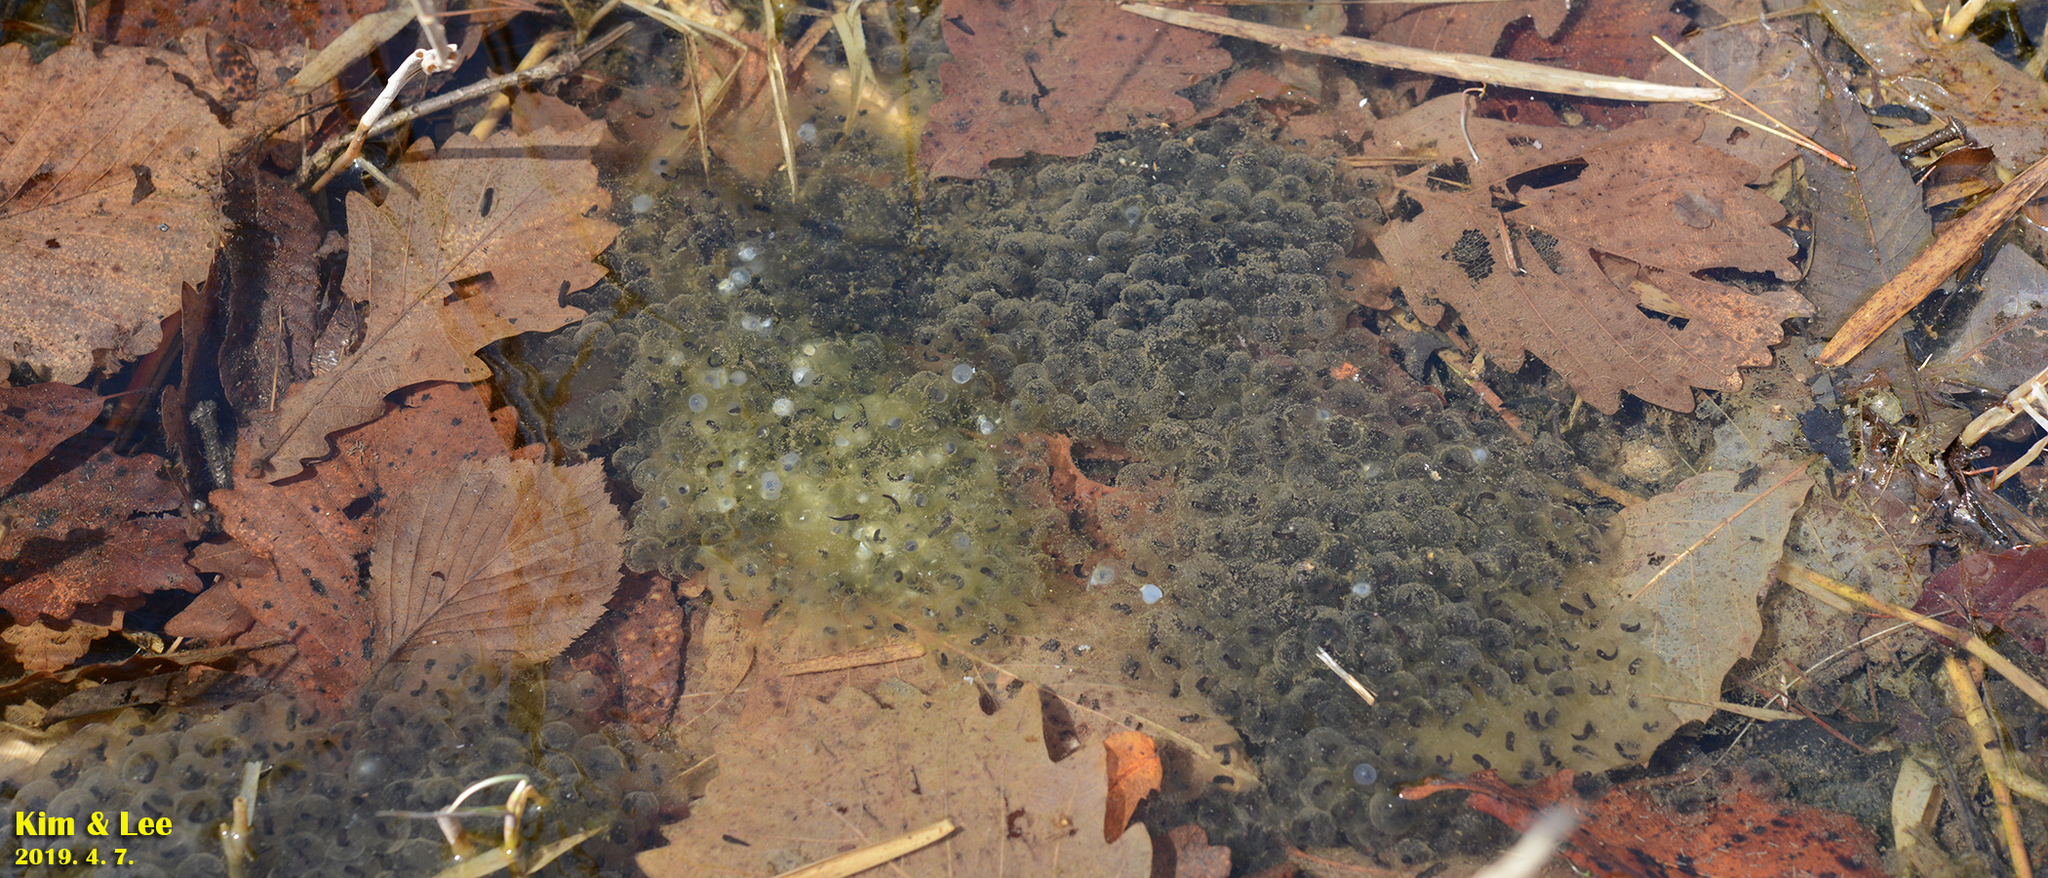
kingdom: Animalia
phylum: Chordata
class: Amphibia
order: Anura
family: Ranidae
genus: Rana
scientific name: Rana huanrenensis
